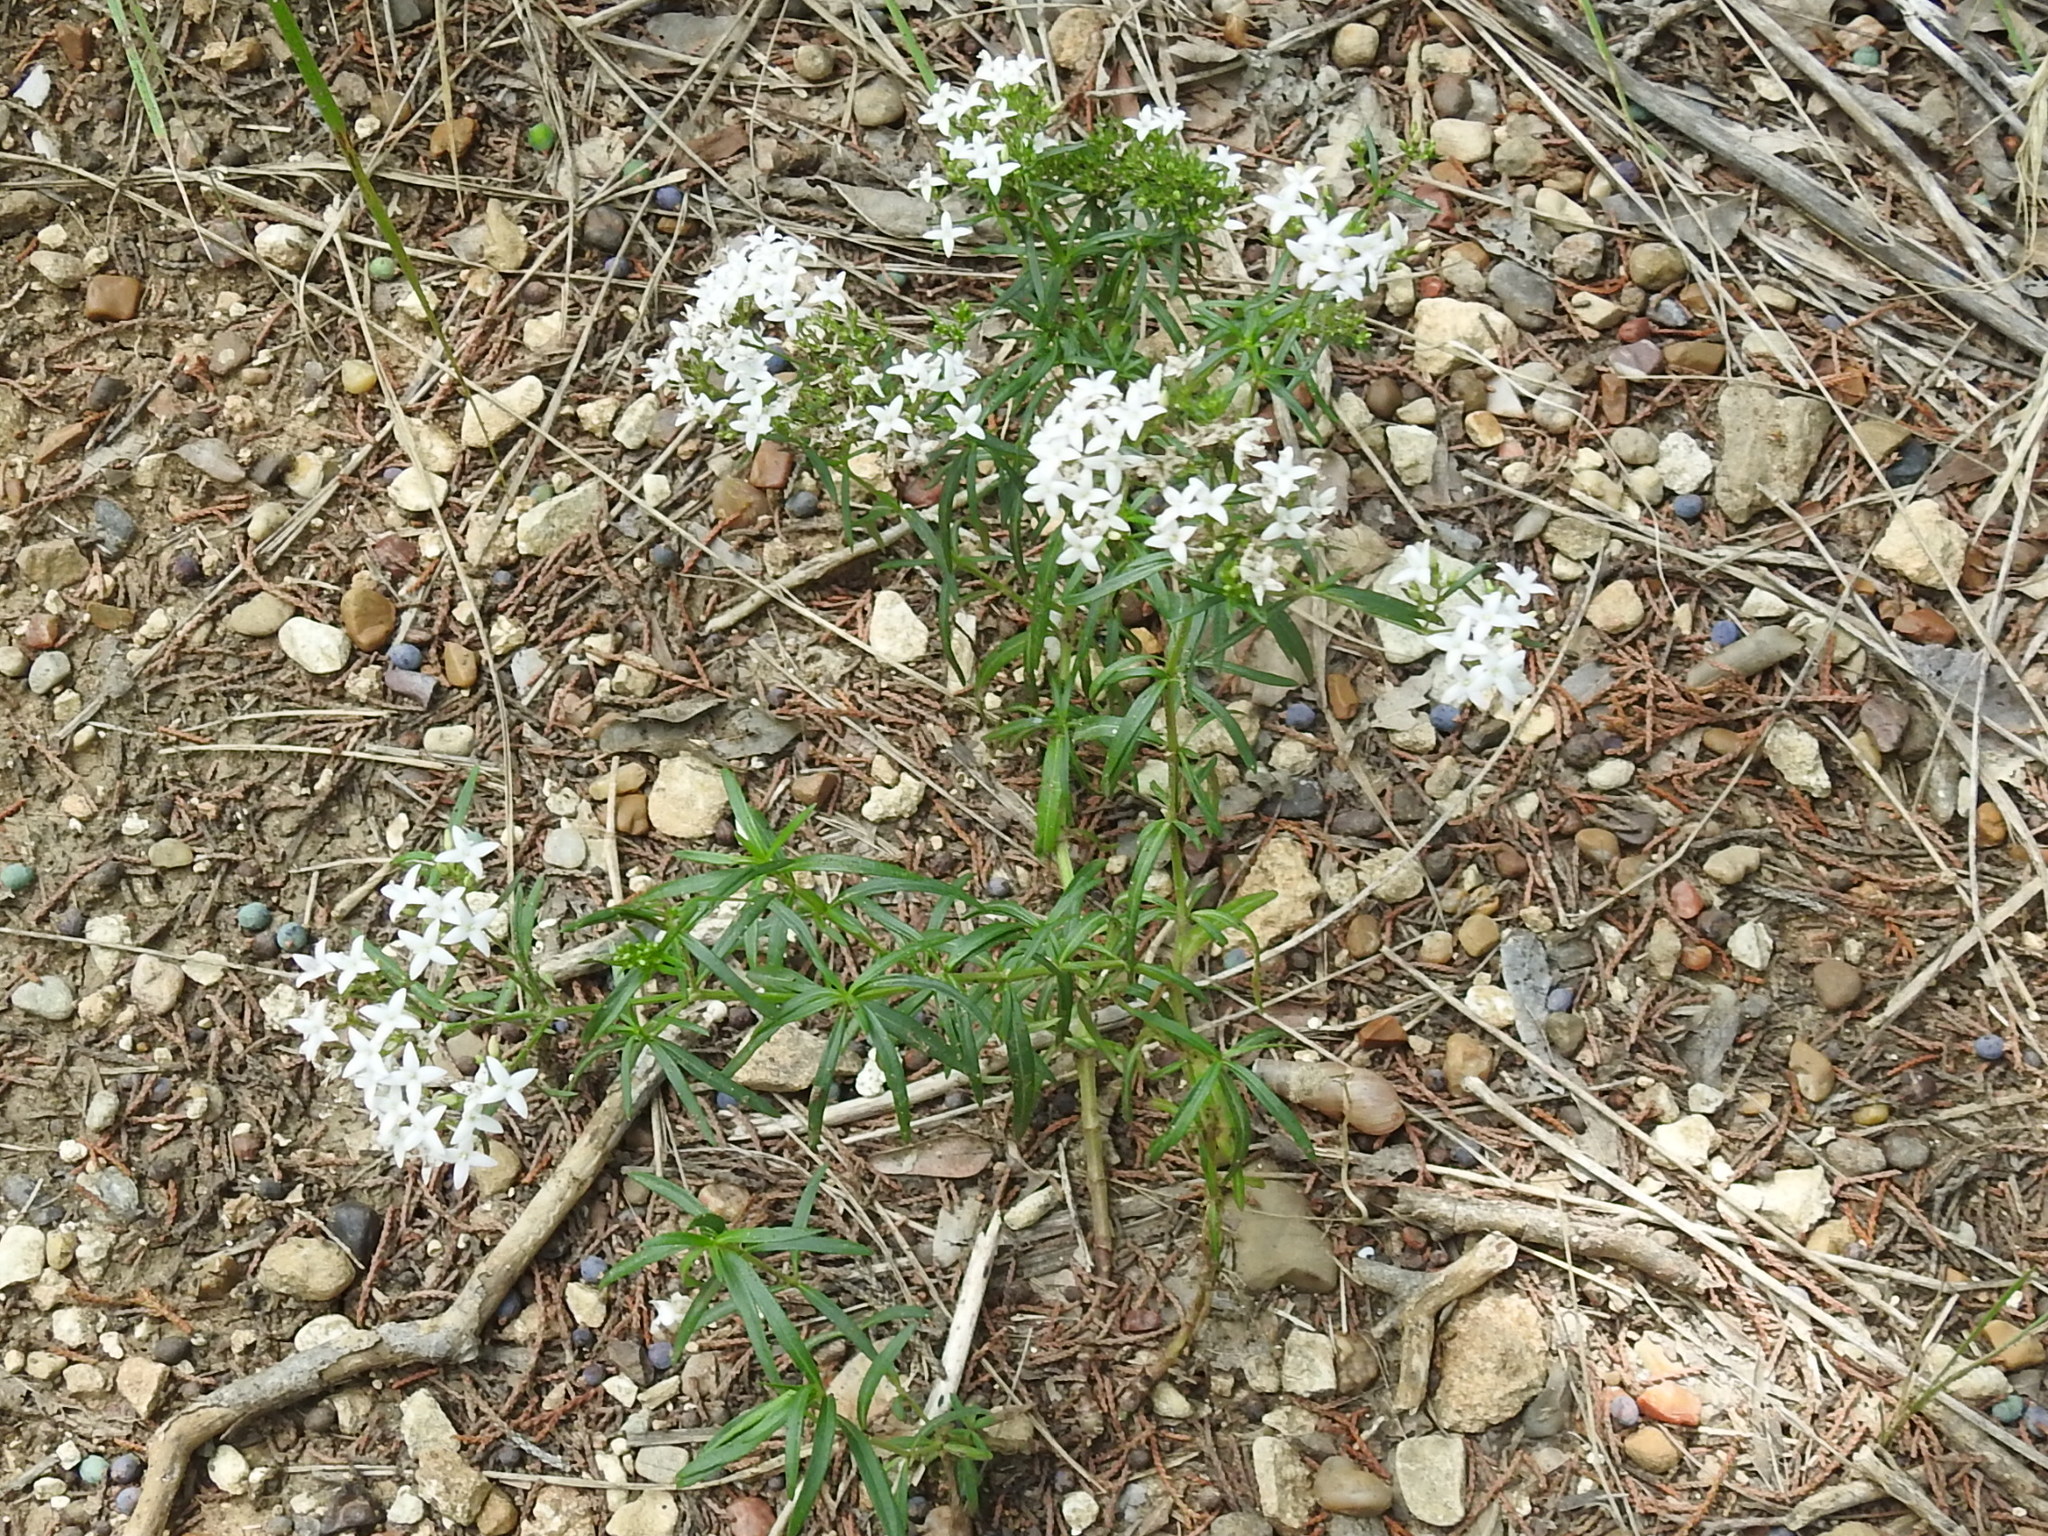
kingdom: Plantae
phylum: Tracheophyta
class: Magnoliopsida
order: Gentianales
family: Rubiaceae
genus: Stenaria
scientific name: Stenaria nigricans
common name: Diamondflowers
